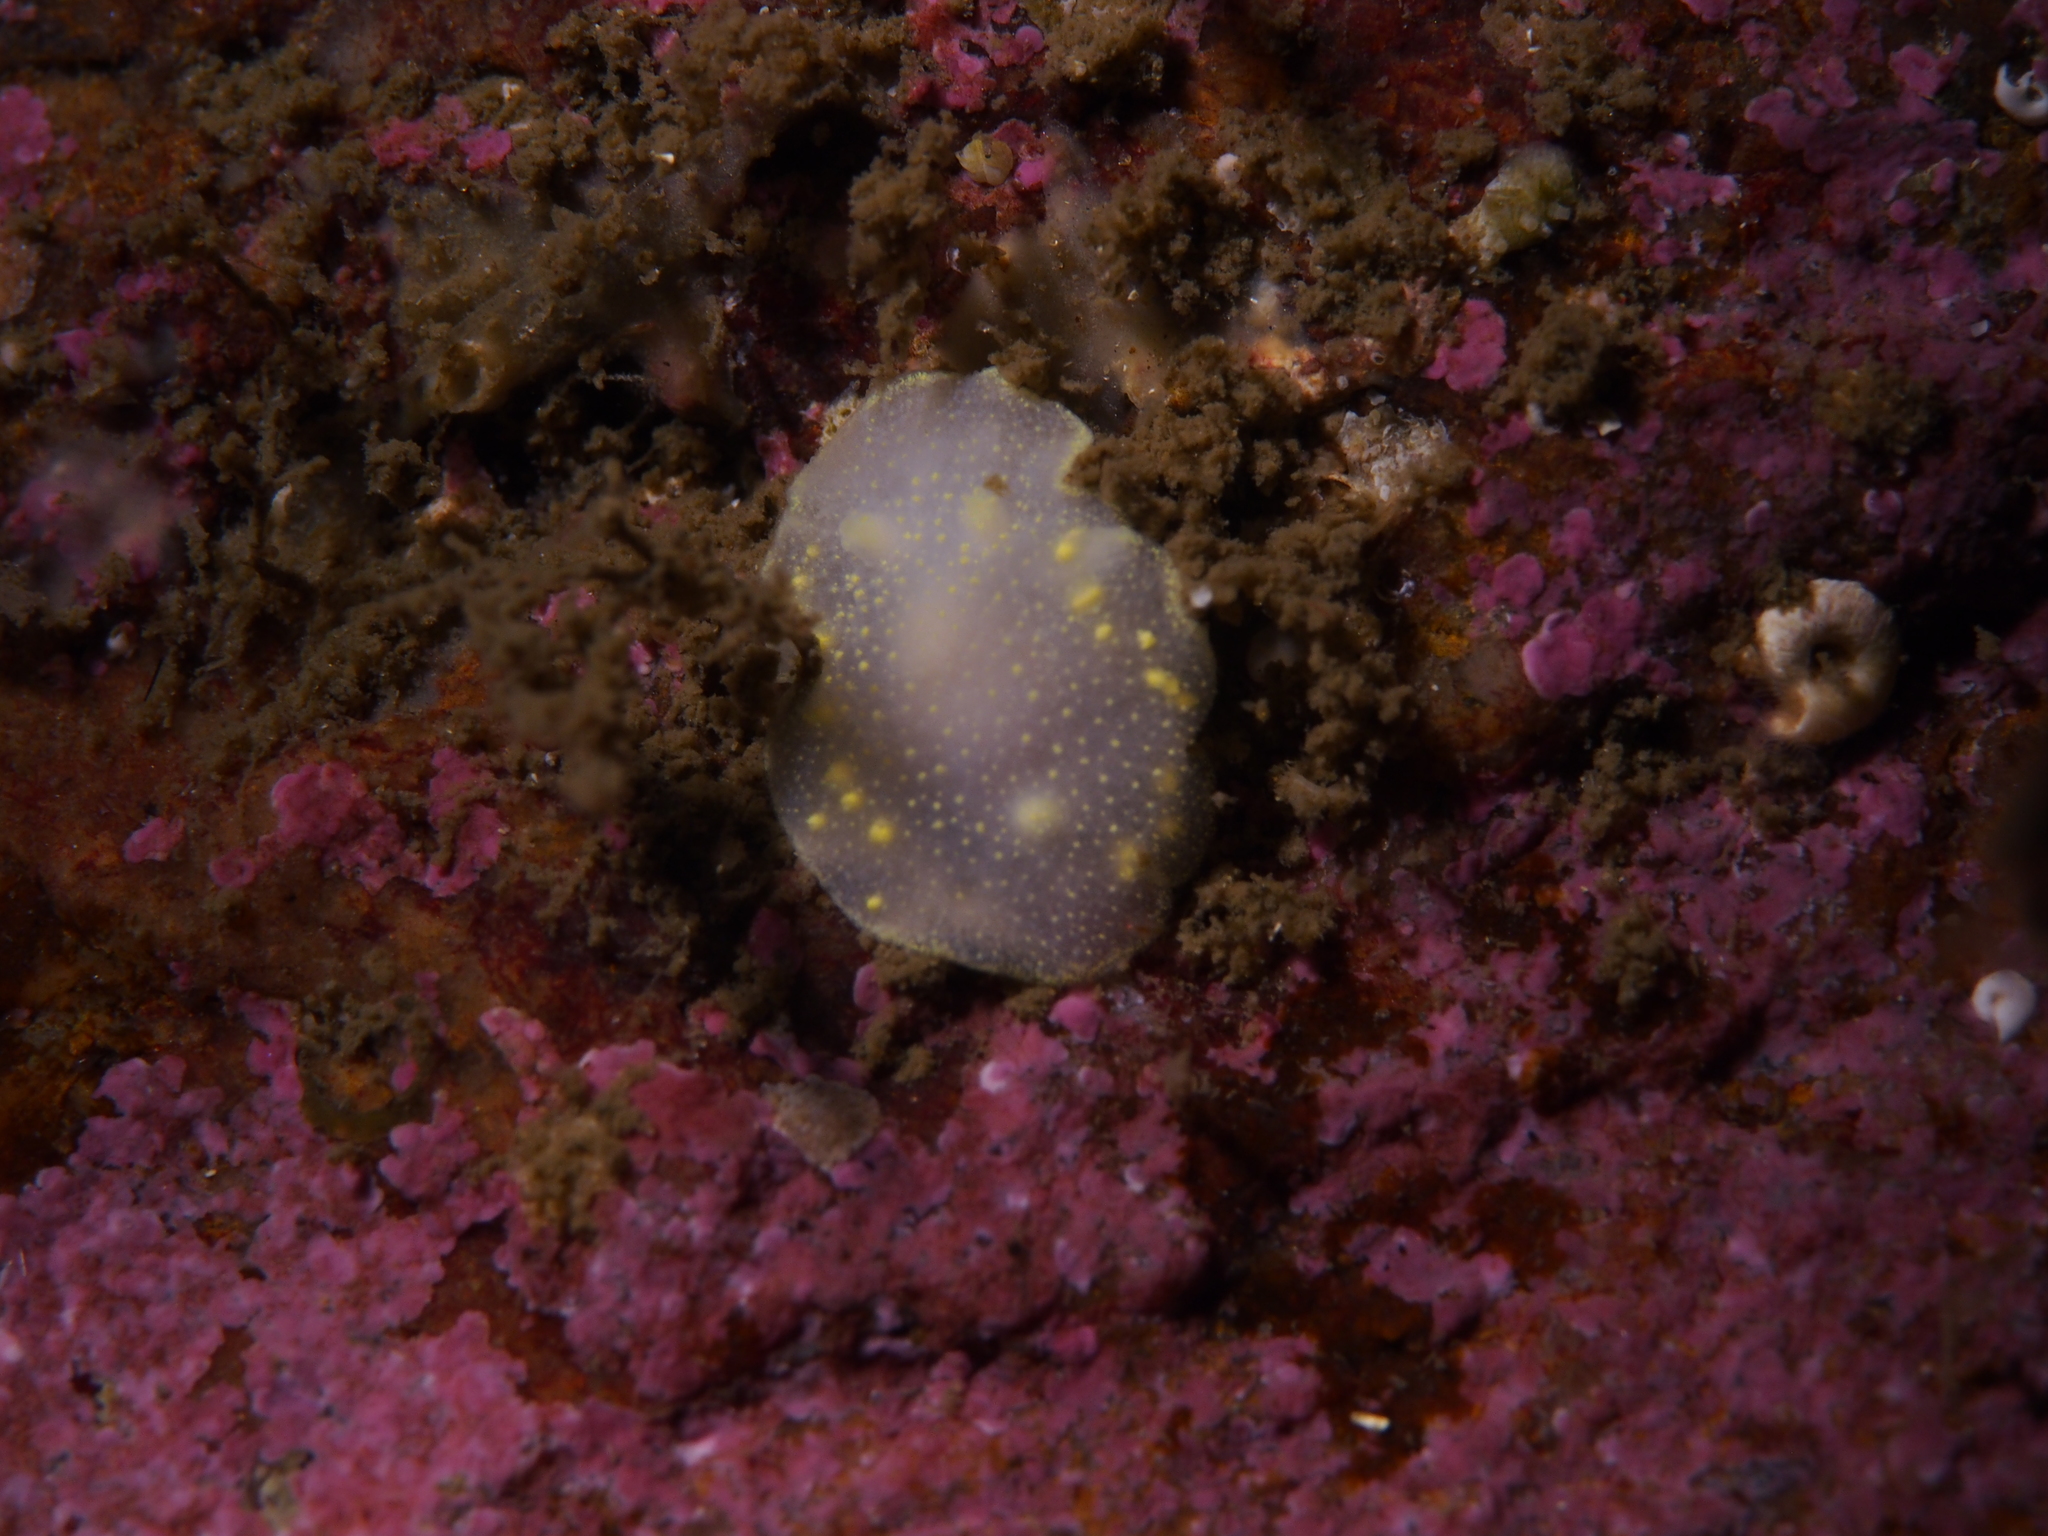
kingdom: Animalia
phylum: Mollusca
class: Gastropoda
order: Nudibranchia
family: Cadlinidae
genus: Cadlina
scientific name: Cadlina laevis
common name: White atlantic cadlina
